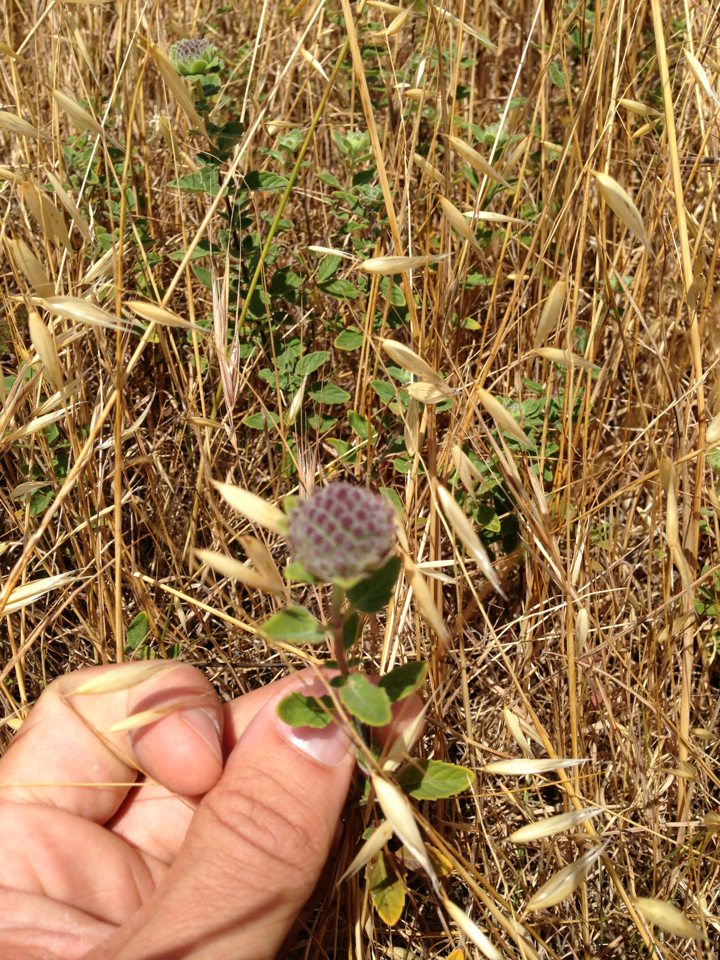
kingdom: Plantae
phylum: Tracheophyta
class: Magnoliopsida
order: Lamiales
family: Lamiaceae
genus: Monardella
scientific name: Monardella odoratissima
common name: Pacific monardella
